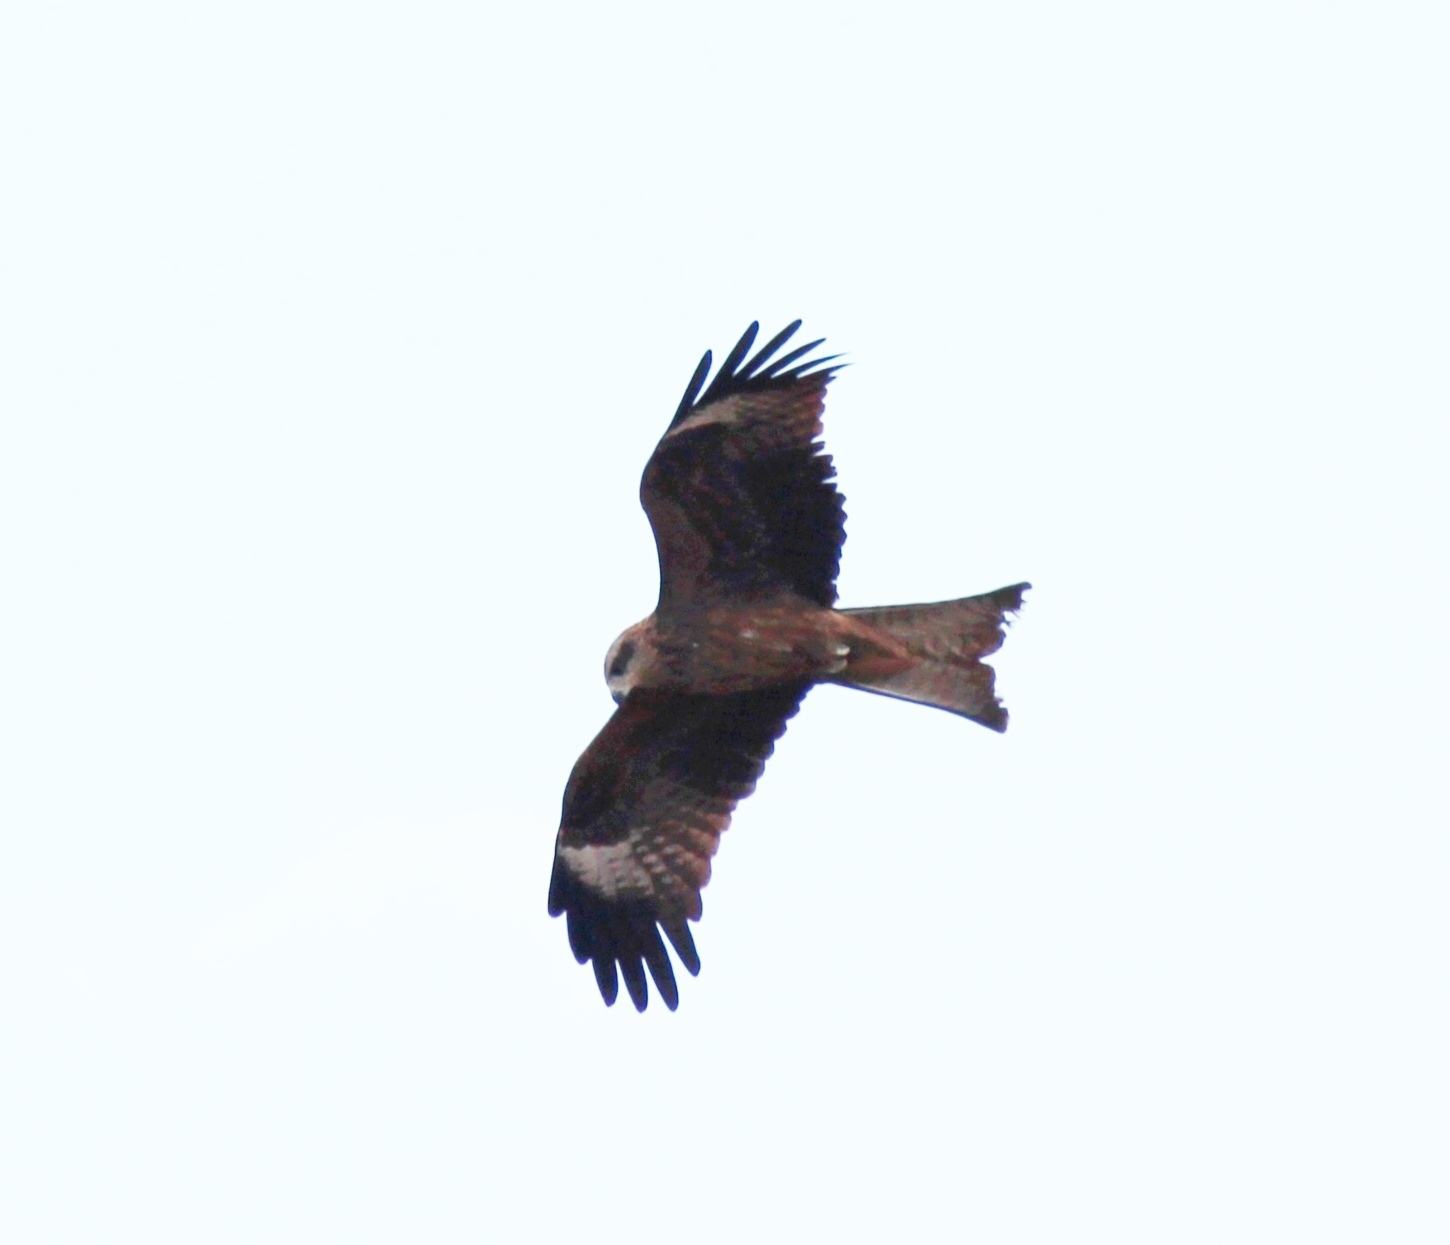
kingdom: Animalia
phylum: Chordata
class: Aves
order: Accipitriformes
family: Accipitridae
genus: Milvus
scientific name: Milvus migrans
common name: Black kite
